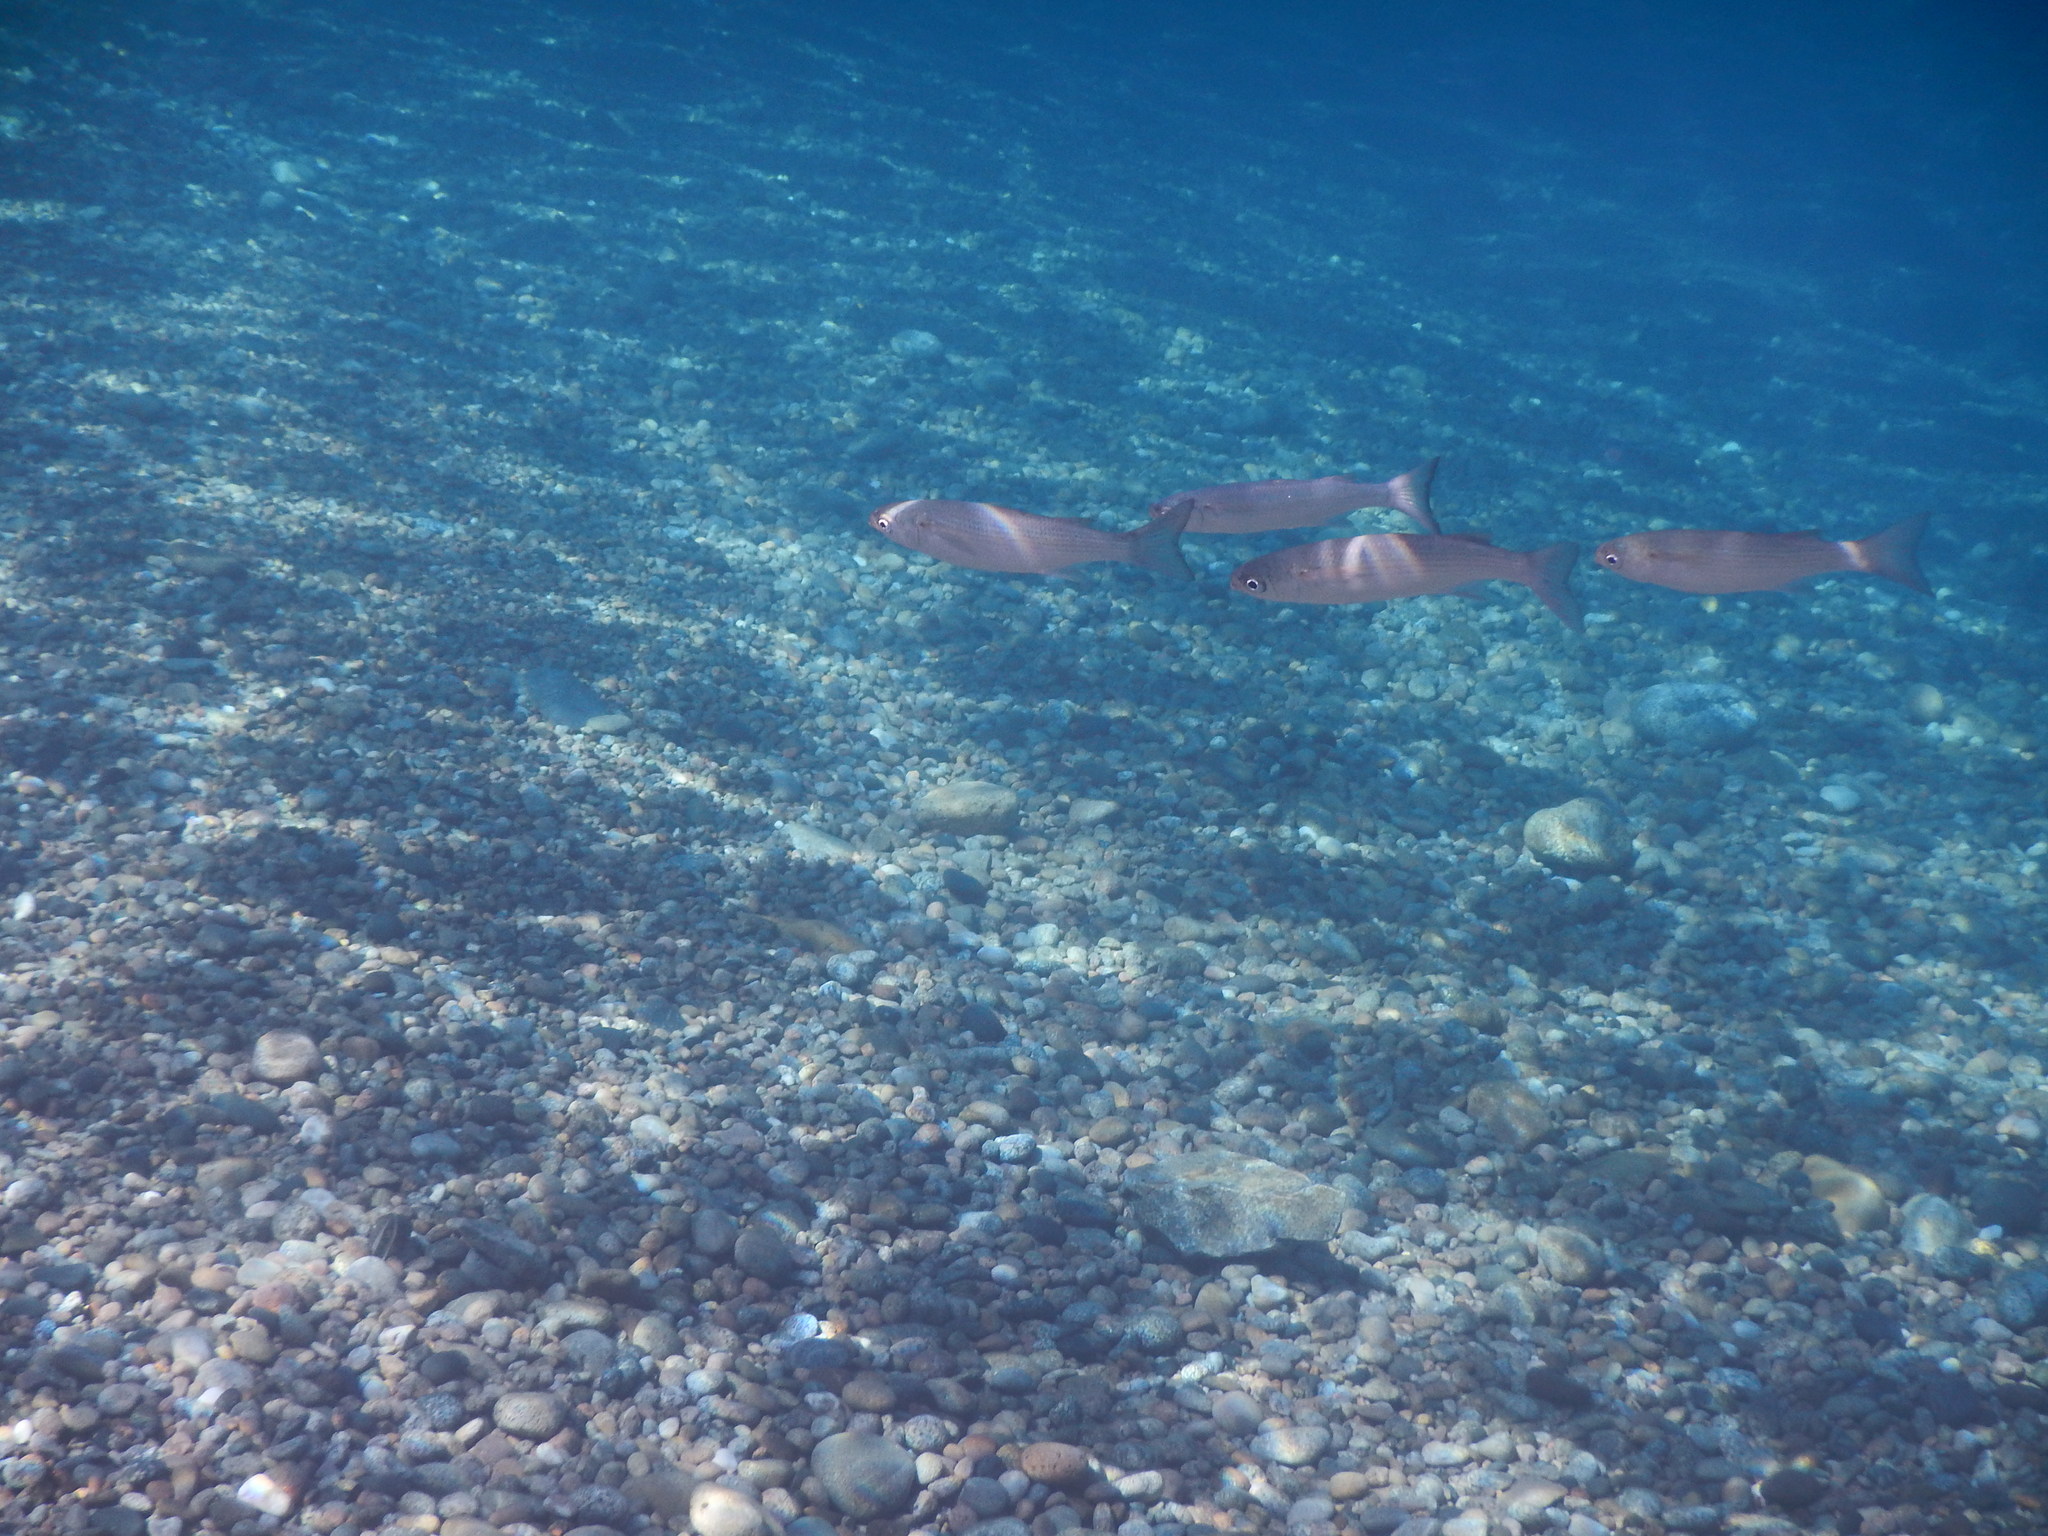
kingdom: Animalia
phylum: Chordata
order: Mugiliformes
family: Mugilidae
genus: Oedalechilus
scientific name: Oedalechilus labeo
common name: Boxlip mullet
